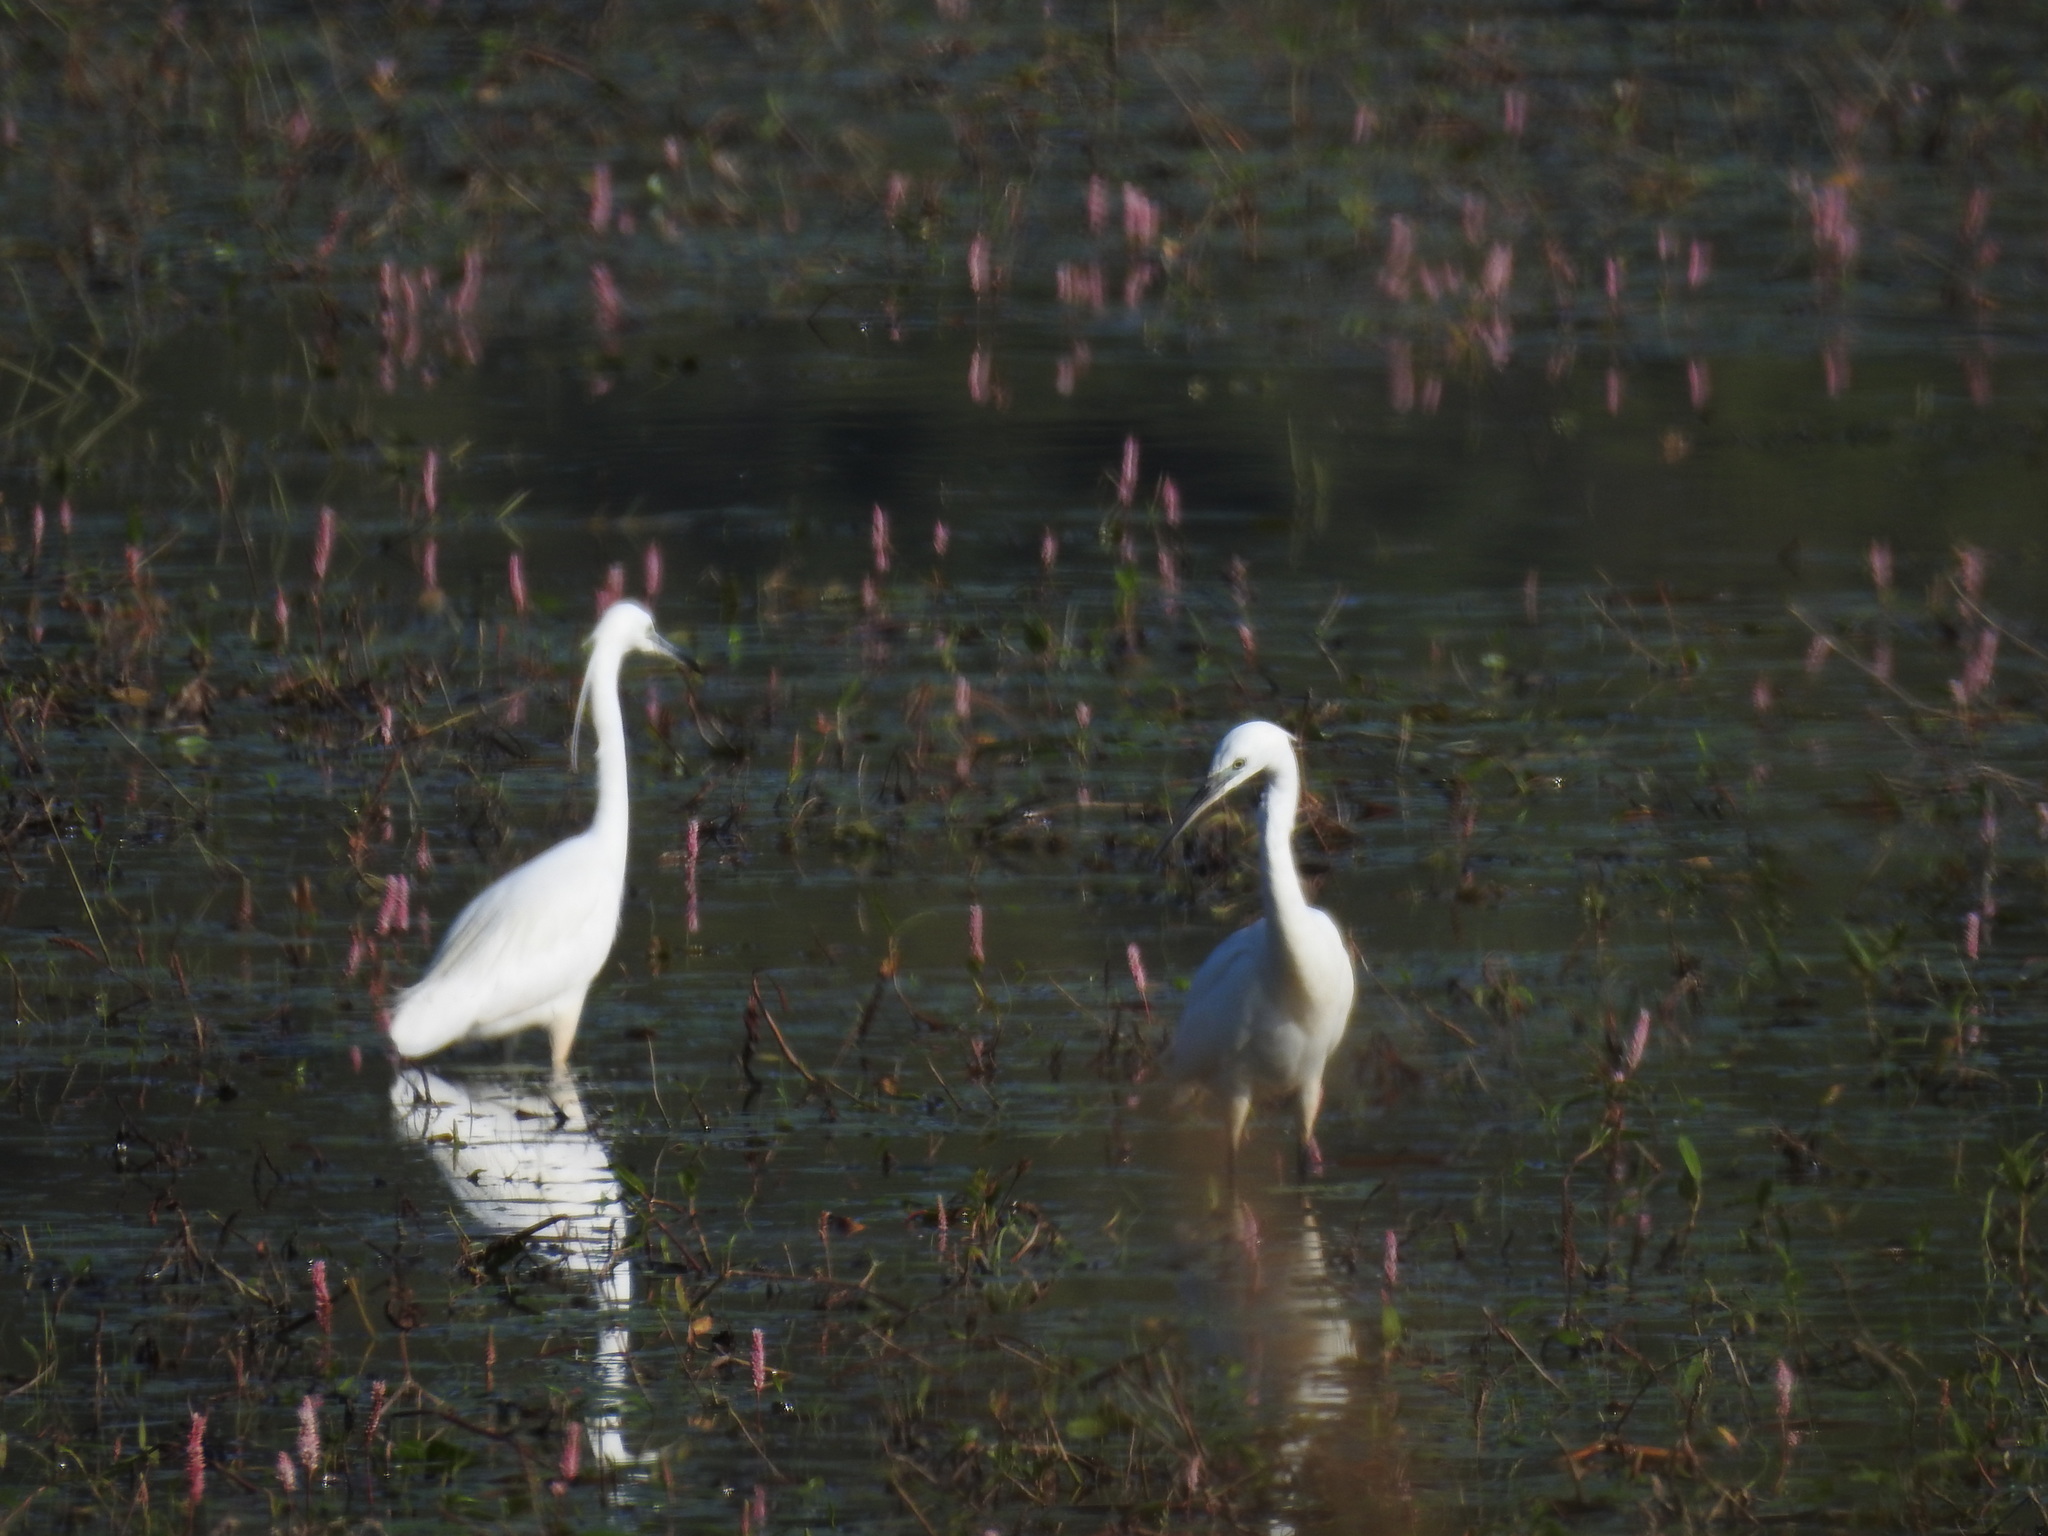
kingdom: Animalia
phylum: Chordata
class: Aves
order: Pelecaniformes
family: Ardeidae
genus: Egretta
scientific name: Egretta garzetta
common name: Little egret
